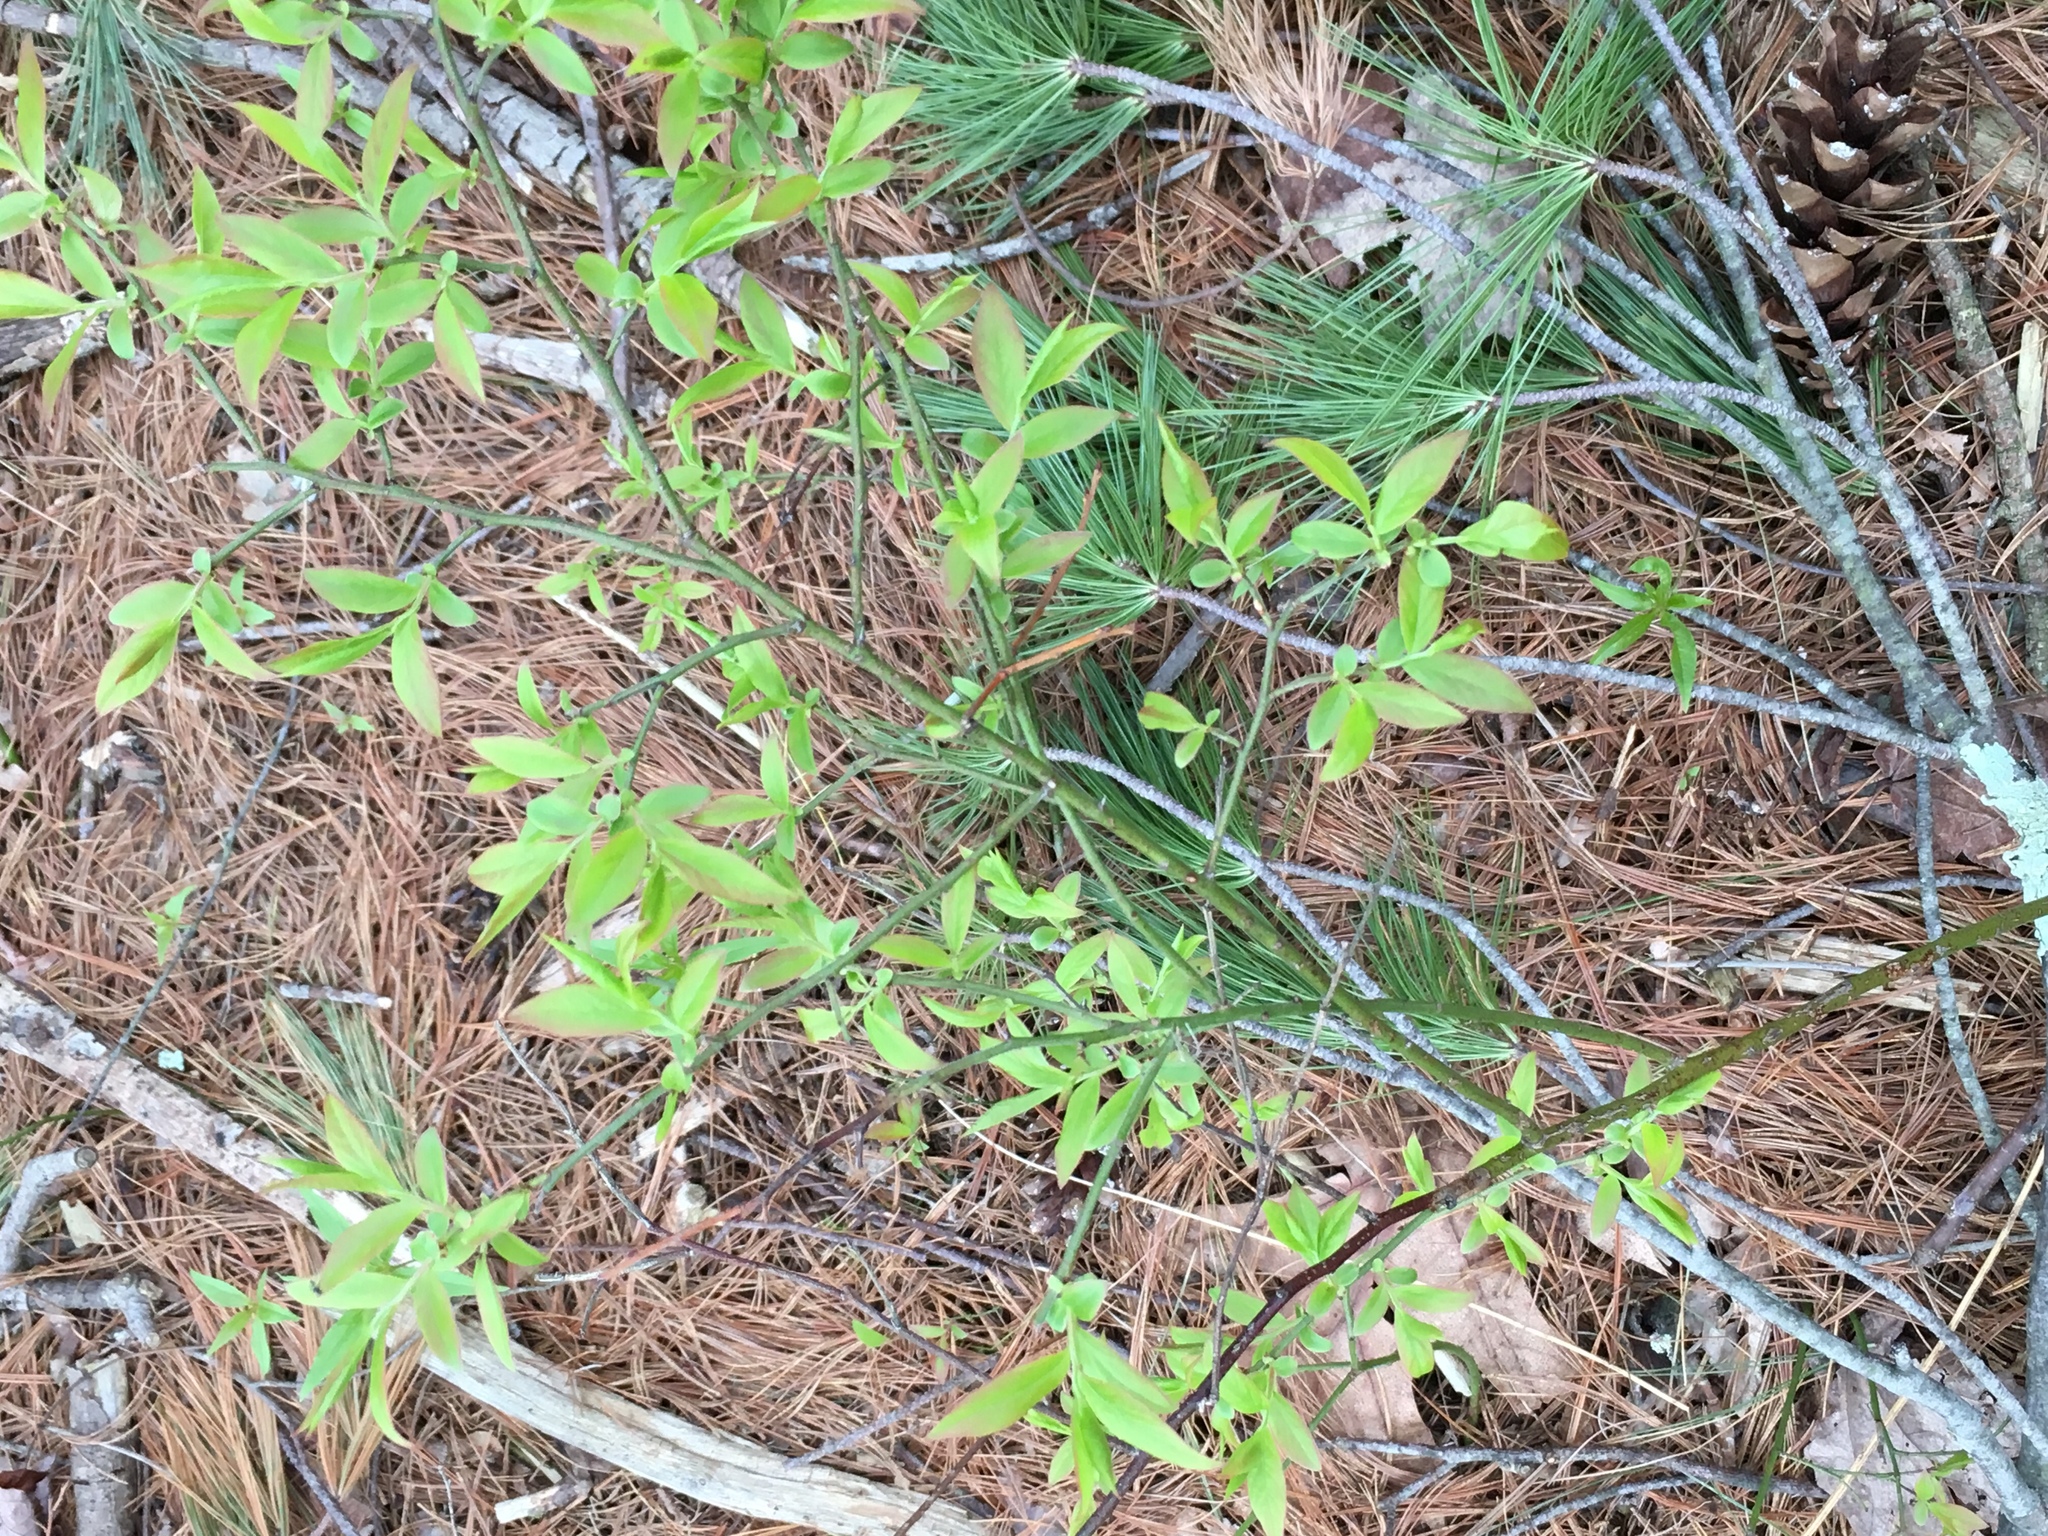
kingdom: Plantae
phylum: Tracheophyta
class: Magnoliopsida
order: Ericales
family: Ericaceae
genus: Vaccinium
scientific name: Vaccinium angustifolium
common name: Early lowbush blueberry
